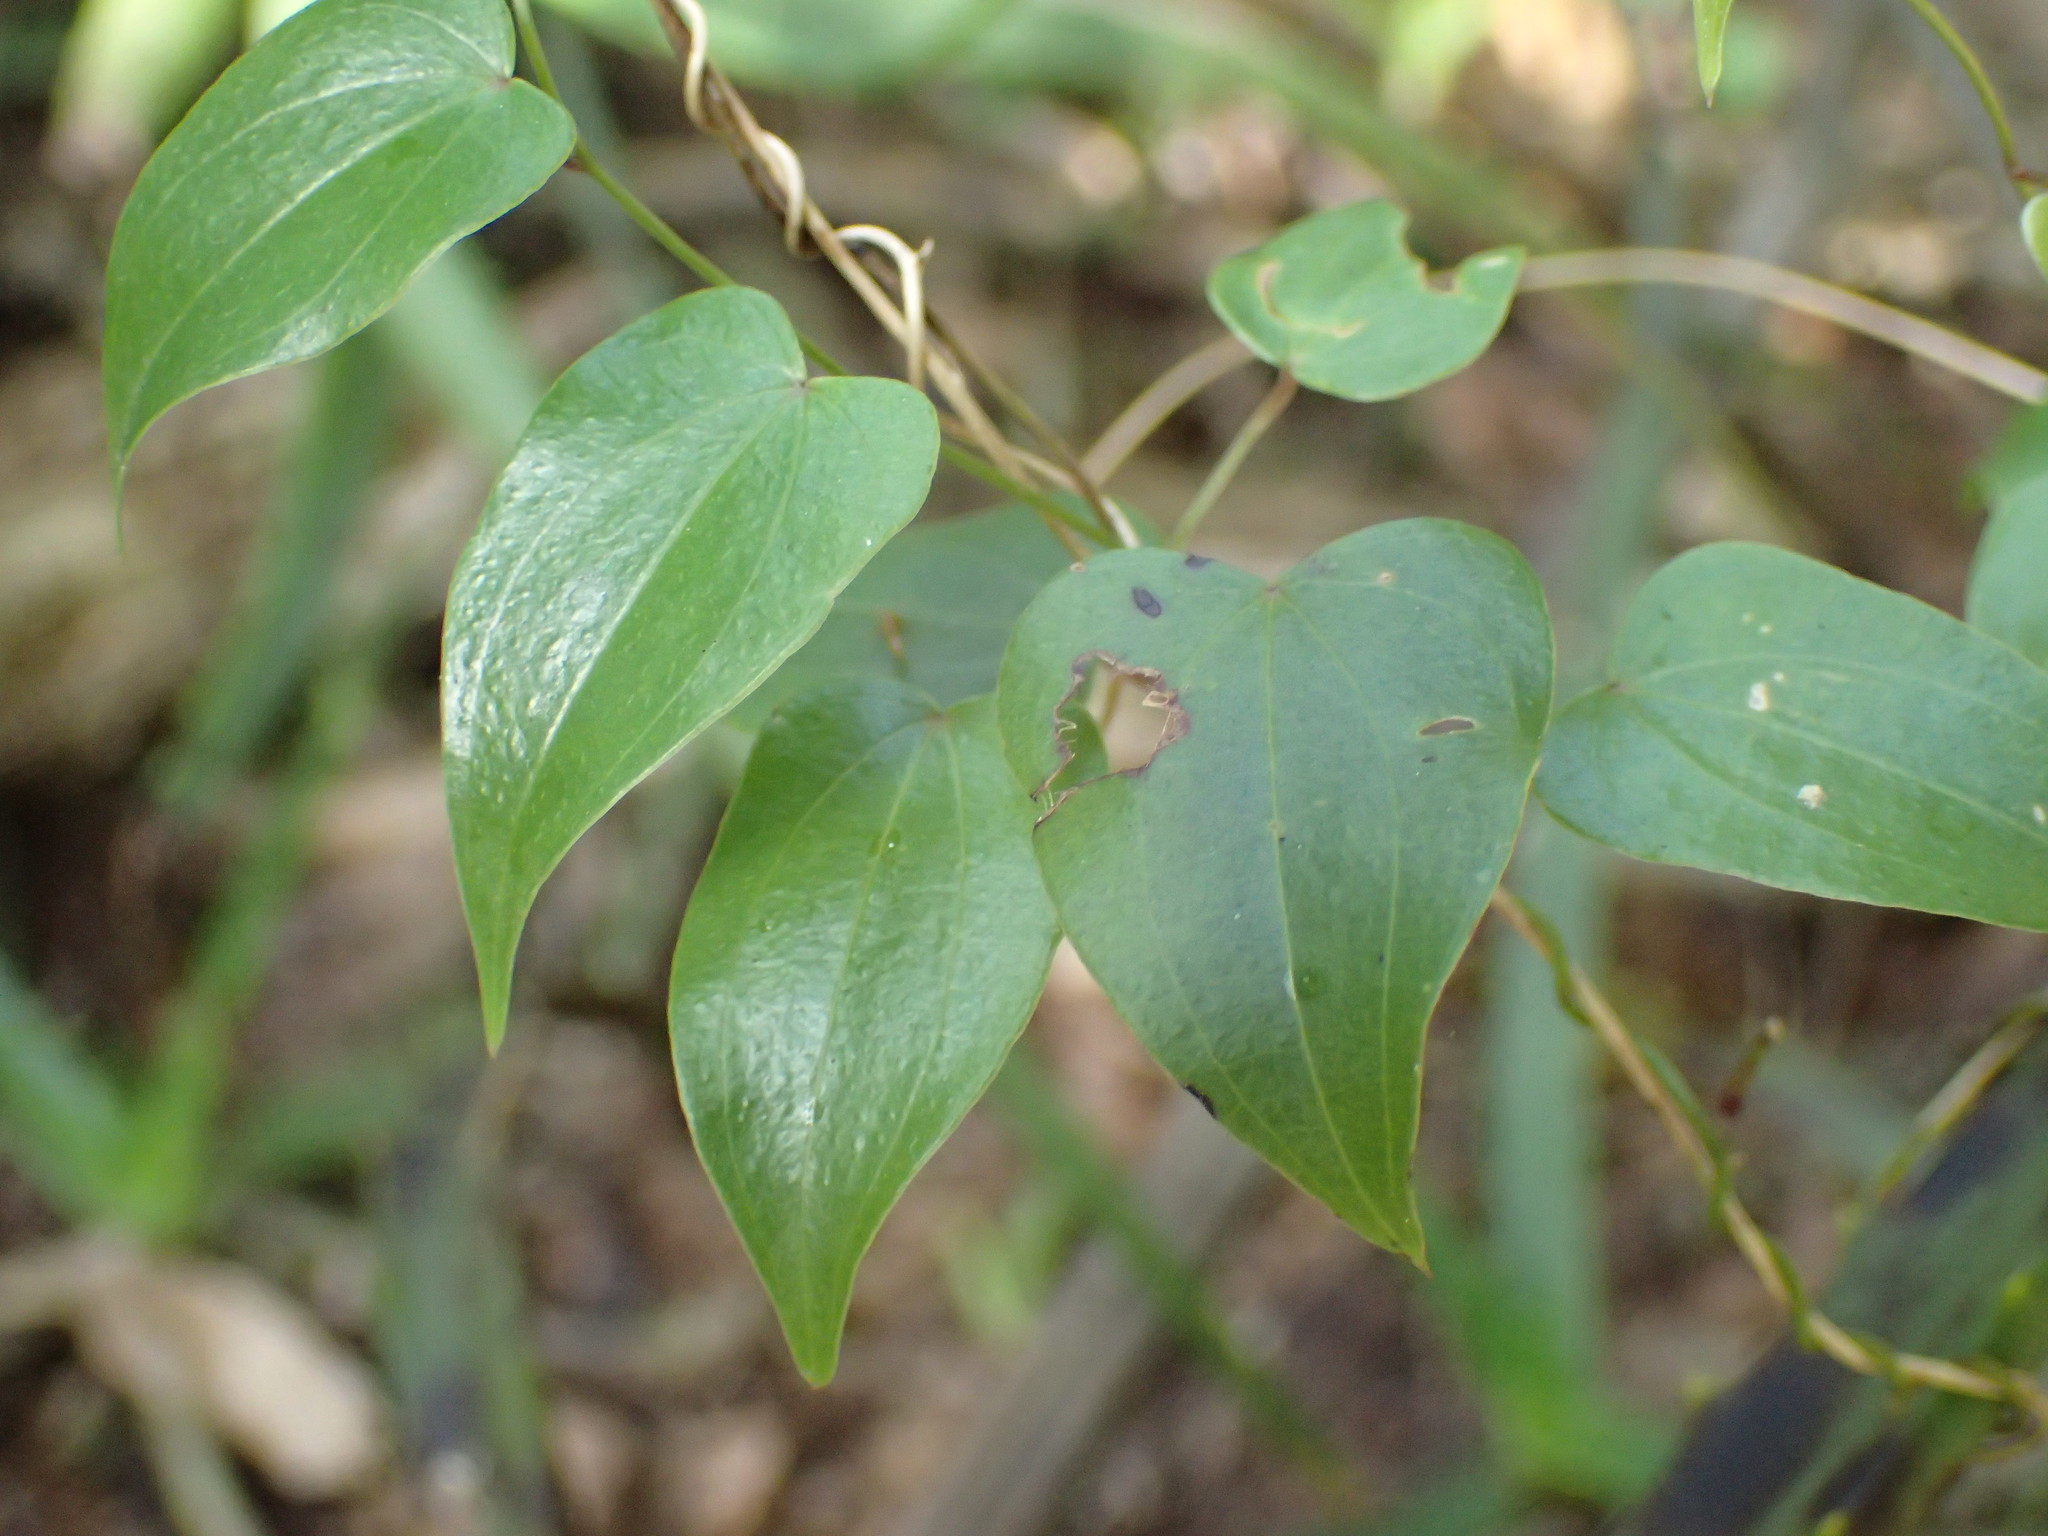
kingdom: Plantae
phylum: Tracheophyta
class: Liliopsida
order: Dioscoreales
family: Dioscoreaceae
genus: Dioscorea
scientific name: Dioscorea cotinifolia
